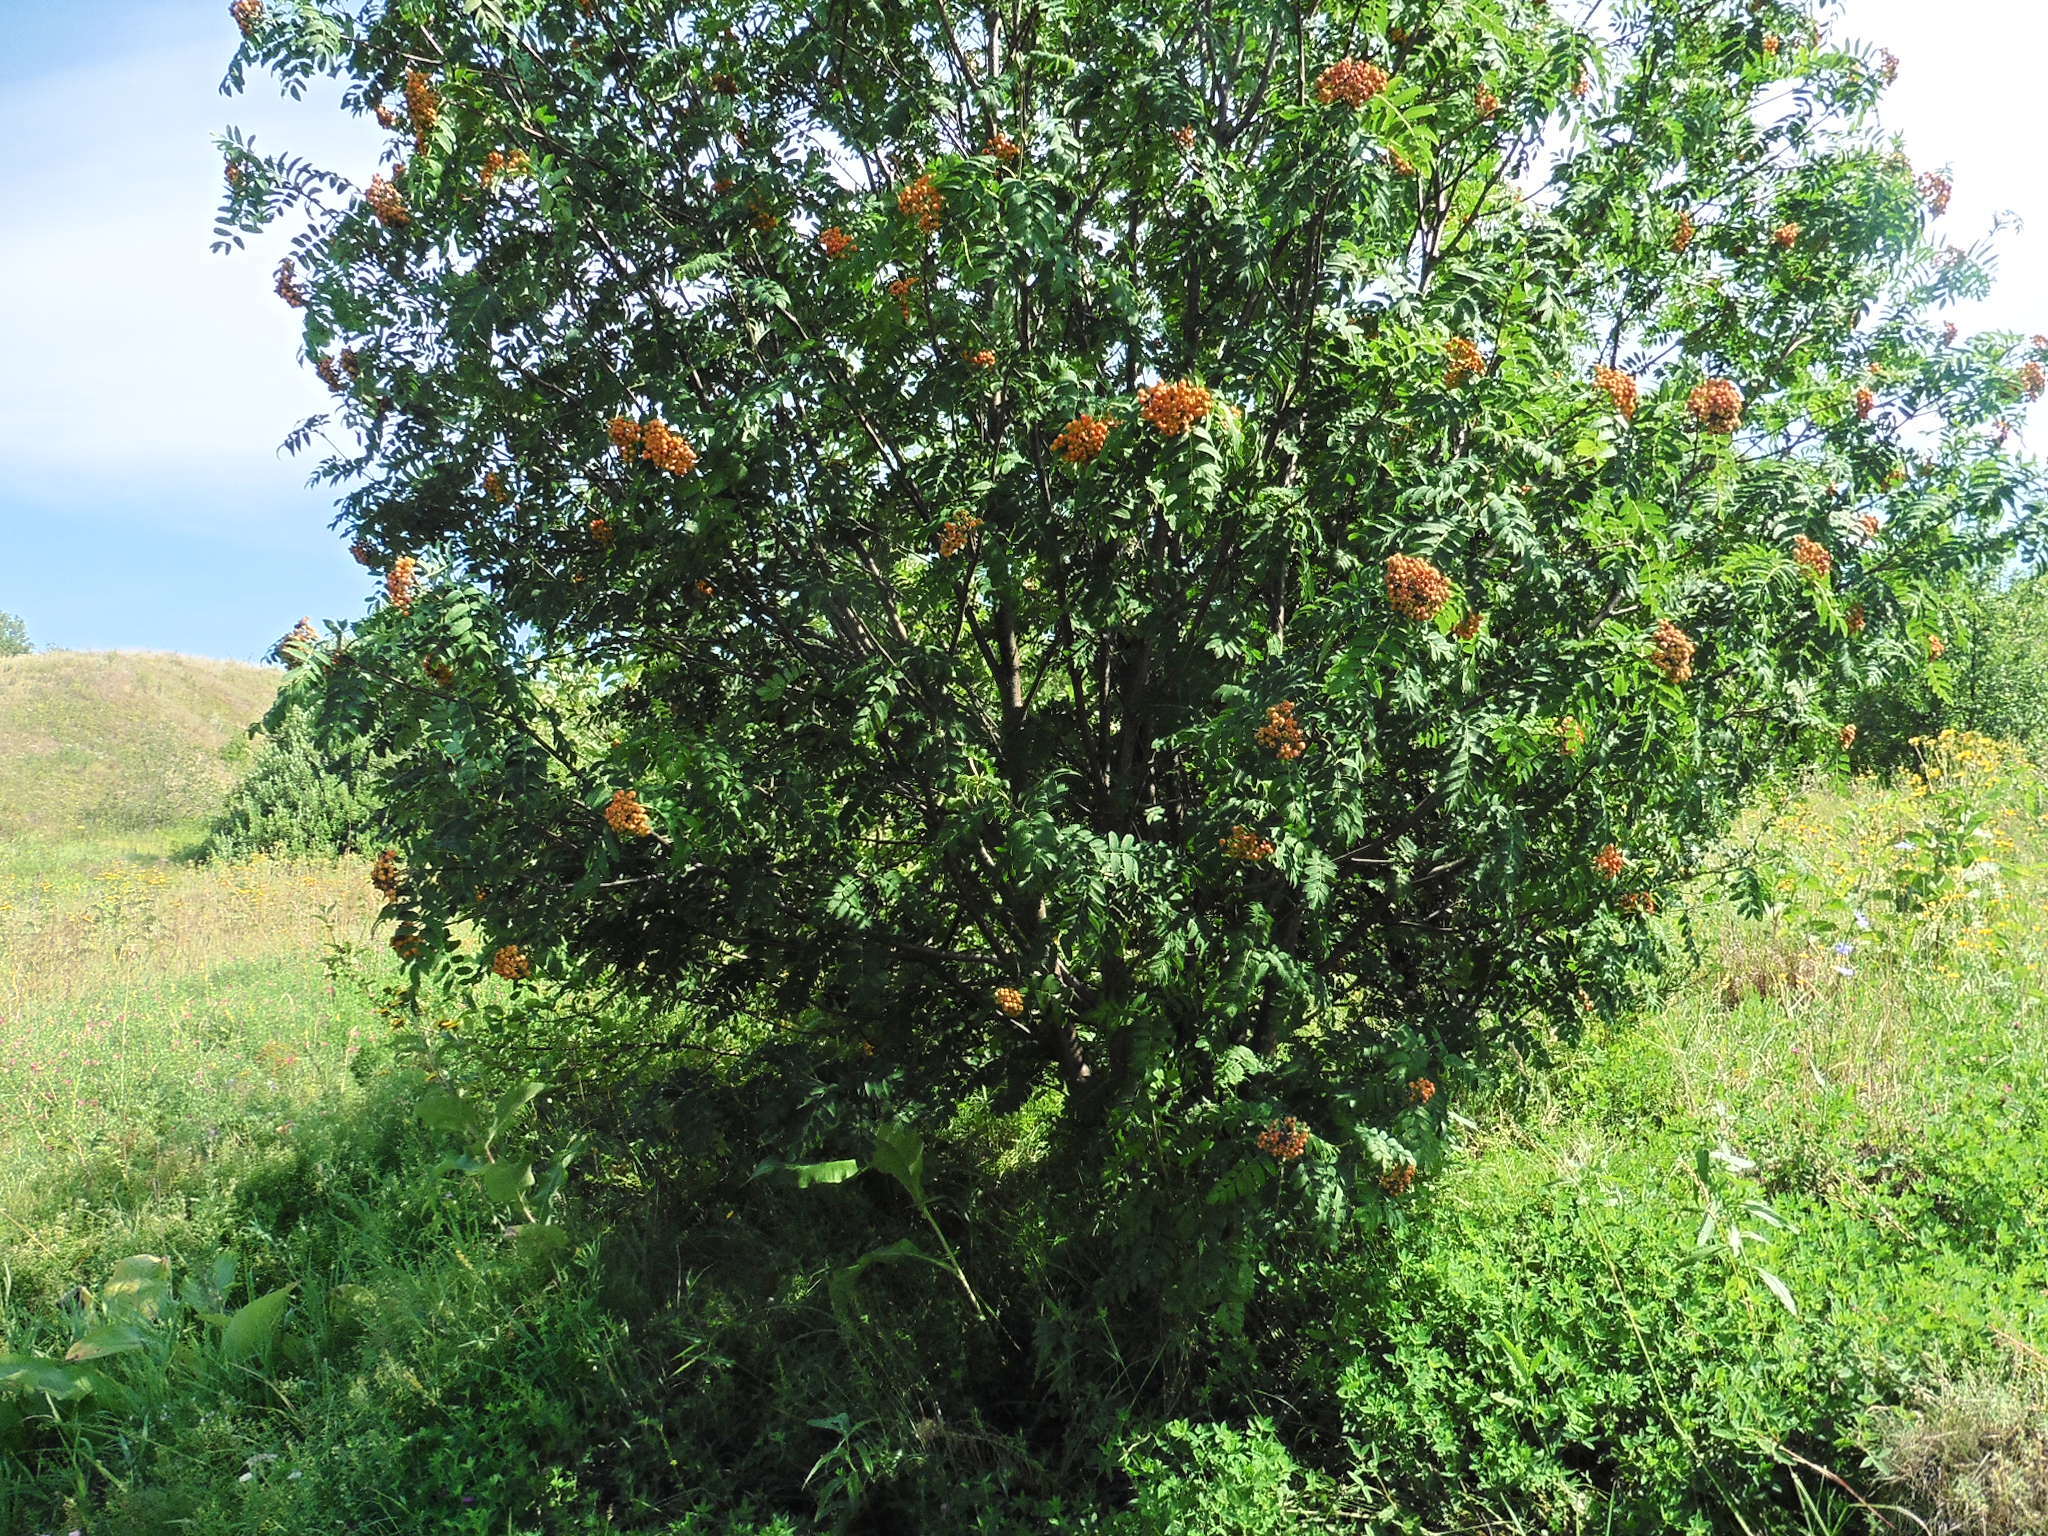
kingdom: Plantae
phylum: Tracheophyta
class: Magnoliopsida
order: Rosales
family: Rosaceae
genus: Sorbus
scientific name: Sorbus aucuparia
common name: Rowan
